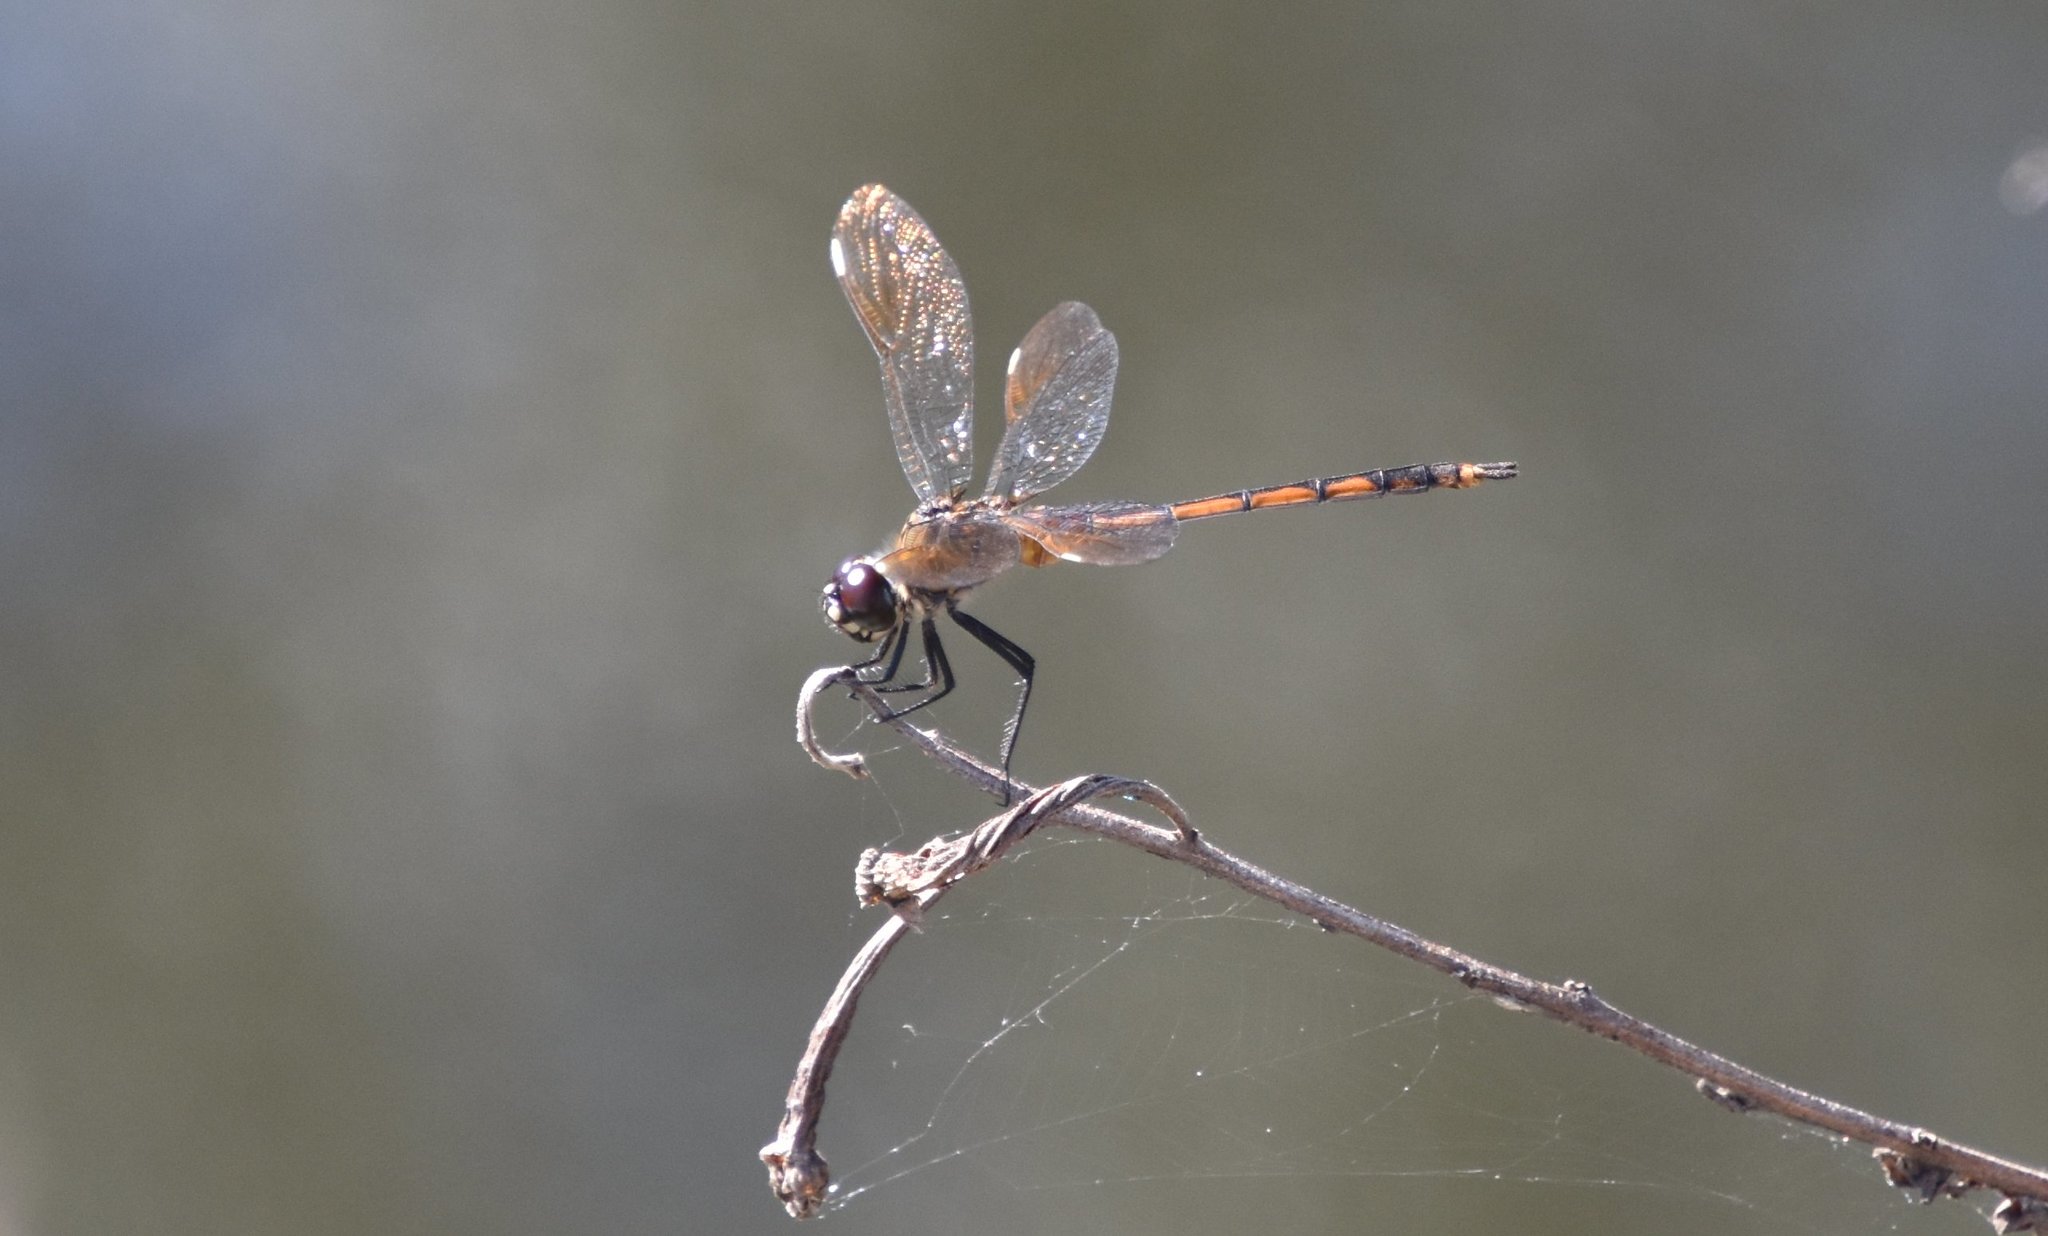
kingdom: Animalia
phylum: Arthropoda
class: Insecta
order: Odonata
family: Libellulidae
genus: Brachymesia
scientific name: Brachymesia gravida
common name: Four-spotted pennant
